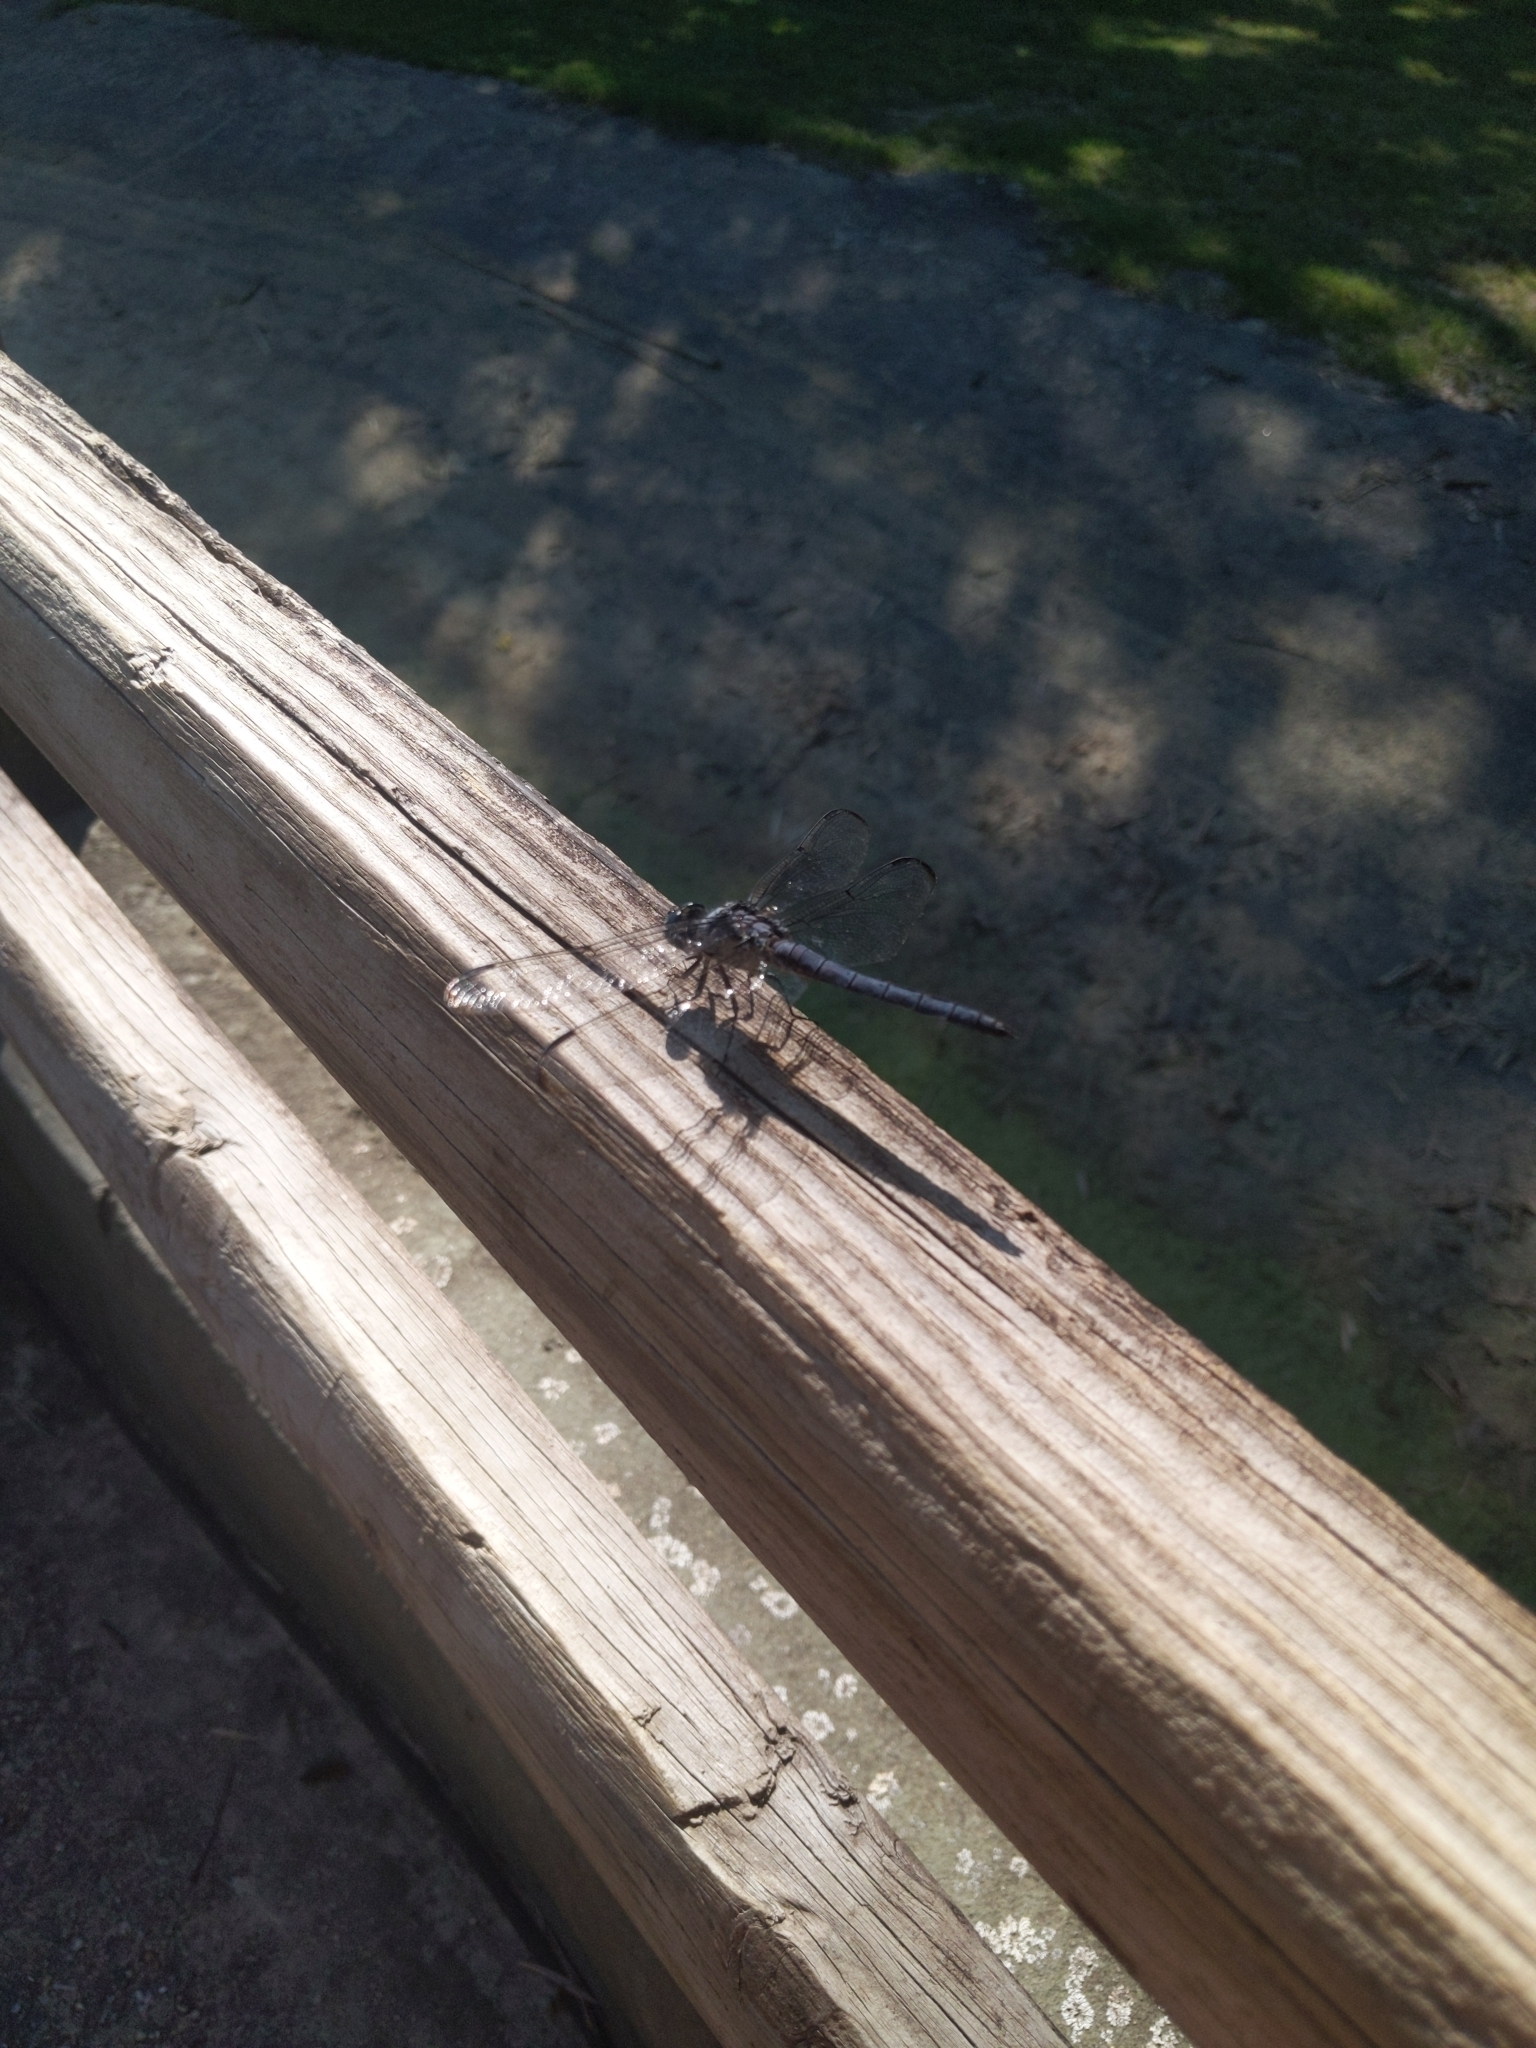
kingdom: Animalia
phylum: Arthropoda
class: Insecta
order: Odonata
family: Libellulidae
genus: Libellula
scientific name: Libellula vibrans
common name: Great blue skimmer
